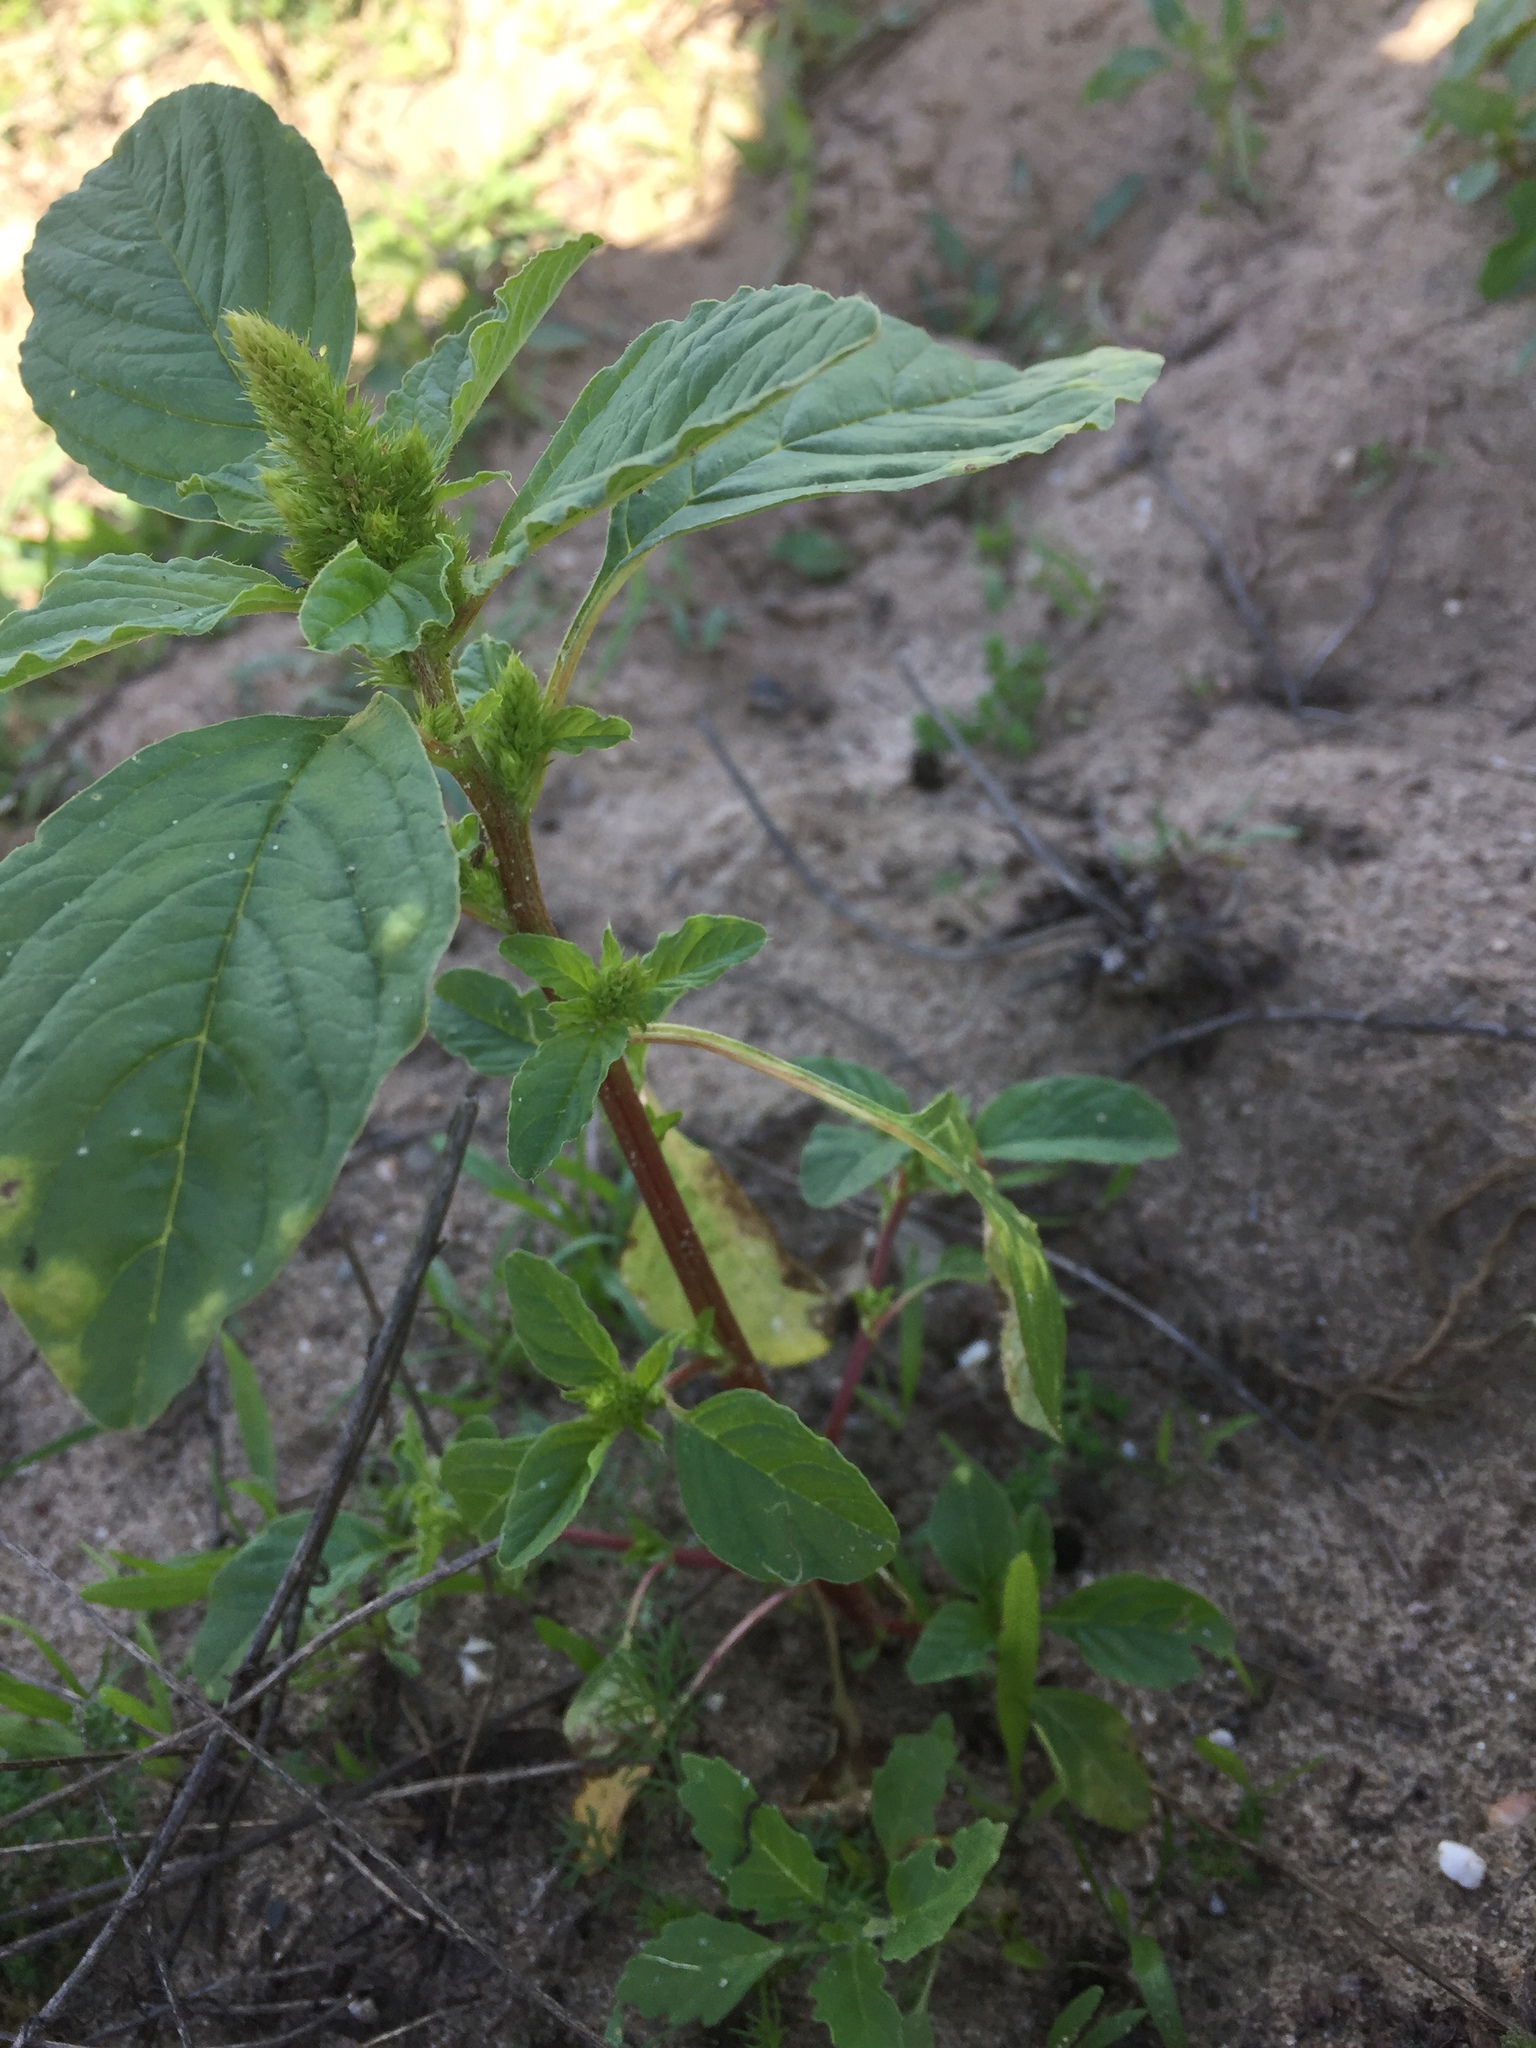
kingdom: Plantae
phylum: Tracheophyta
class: Magnoliopsida
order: Caryophyllales
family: Amaranthaceae
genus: Amaranthus
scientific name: Amaranthus hybridus
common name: Green amaranth
